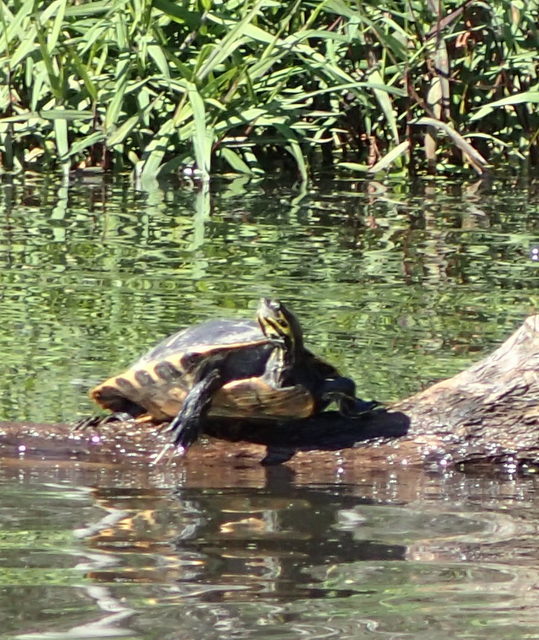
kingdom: Animalia
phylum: Chordata
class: Testudines
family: Emydidae
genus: Pseudemys
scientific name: Pseudemys concinna
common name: Eastern river cooter
